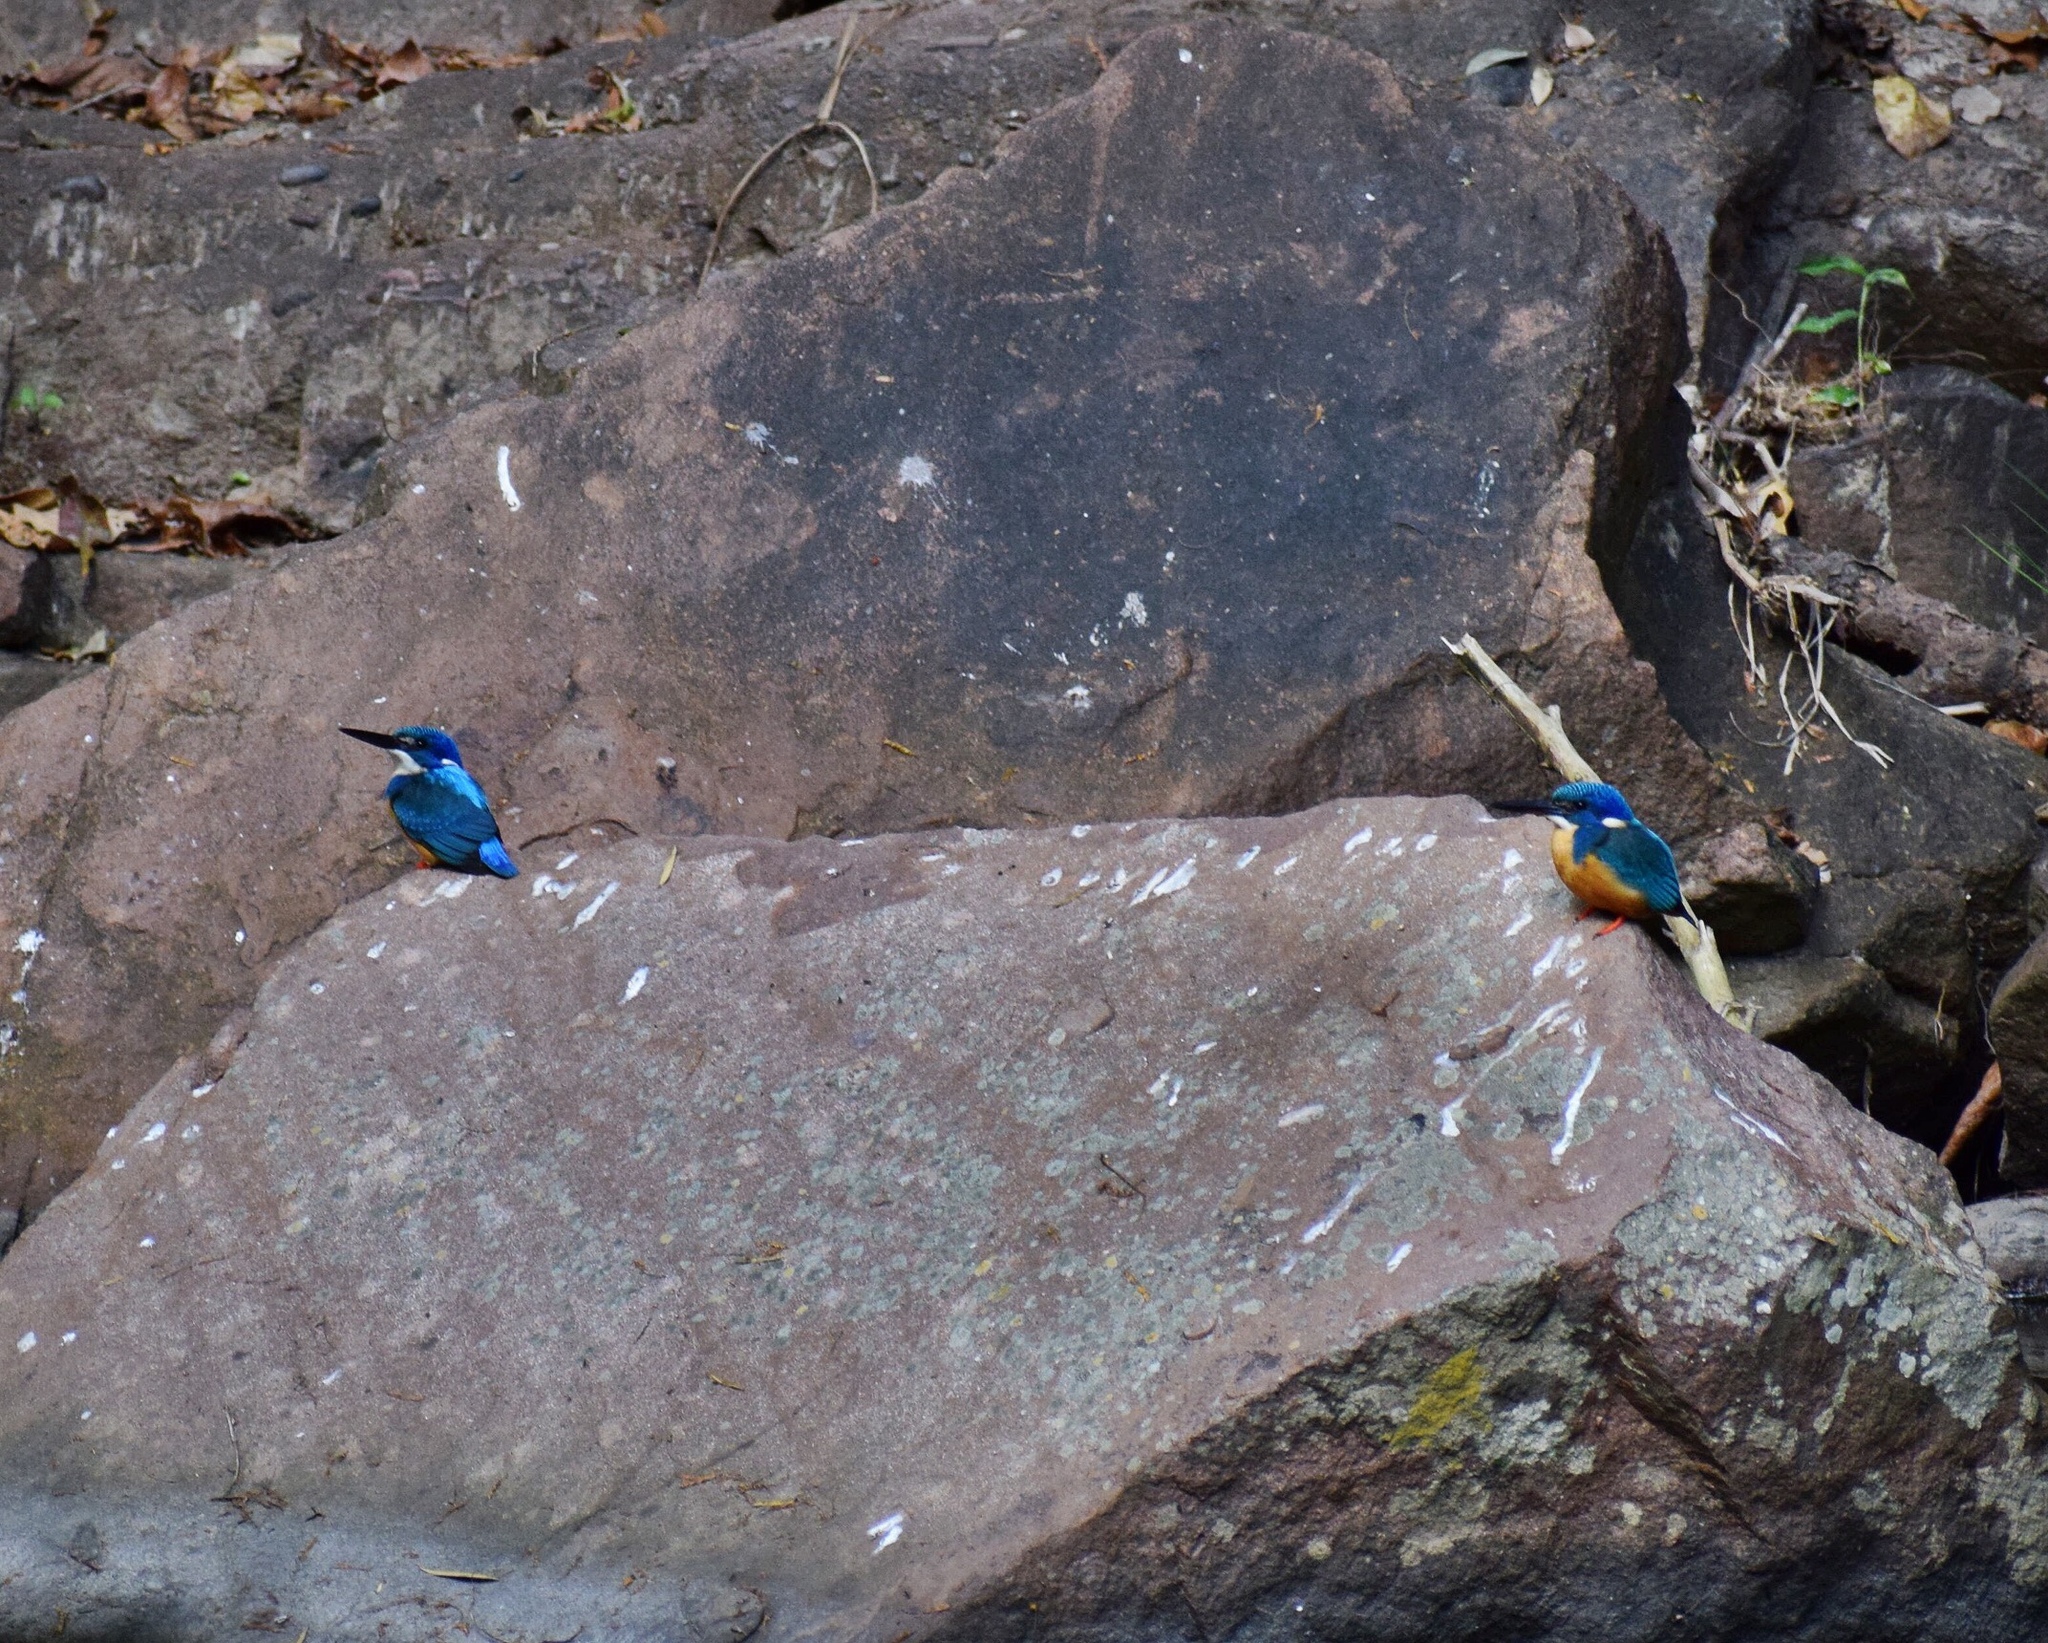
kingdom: Animalia
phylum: Chordata
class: Aves
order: Coraciiformes
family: Alcedinidae
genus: Alcedo
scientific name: Alcedo semitorquata
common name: Half-collared kingfisher
